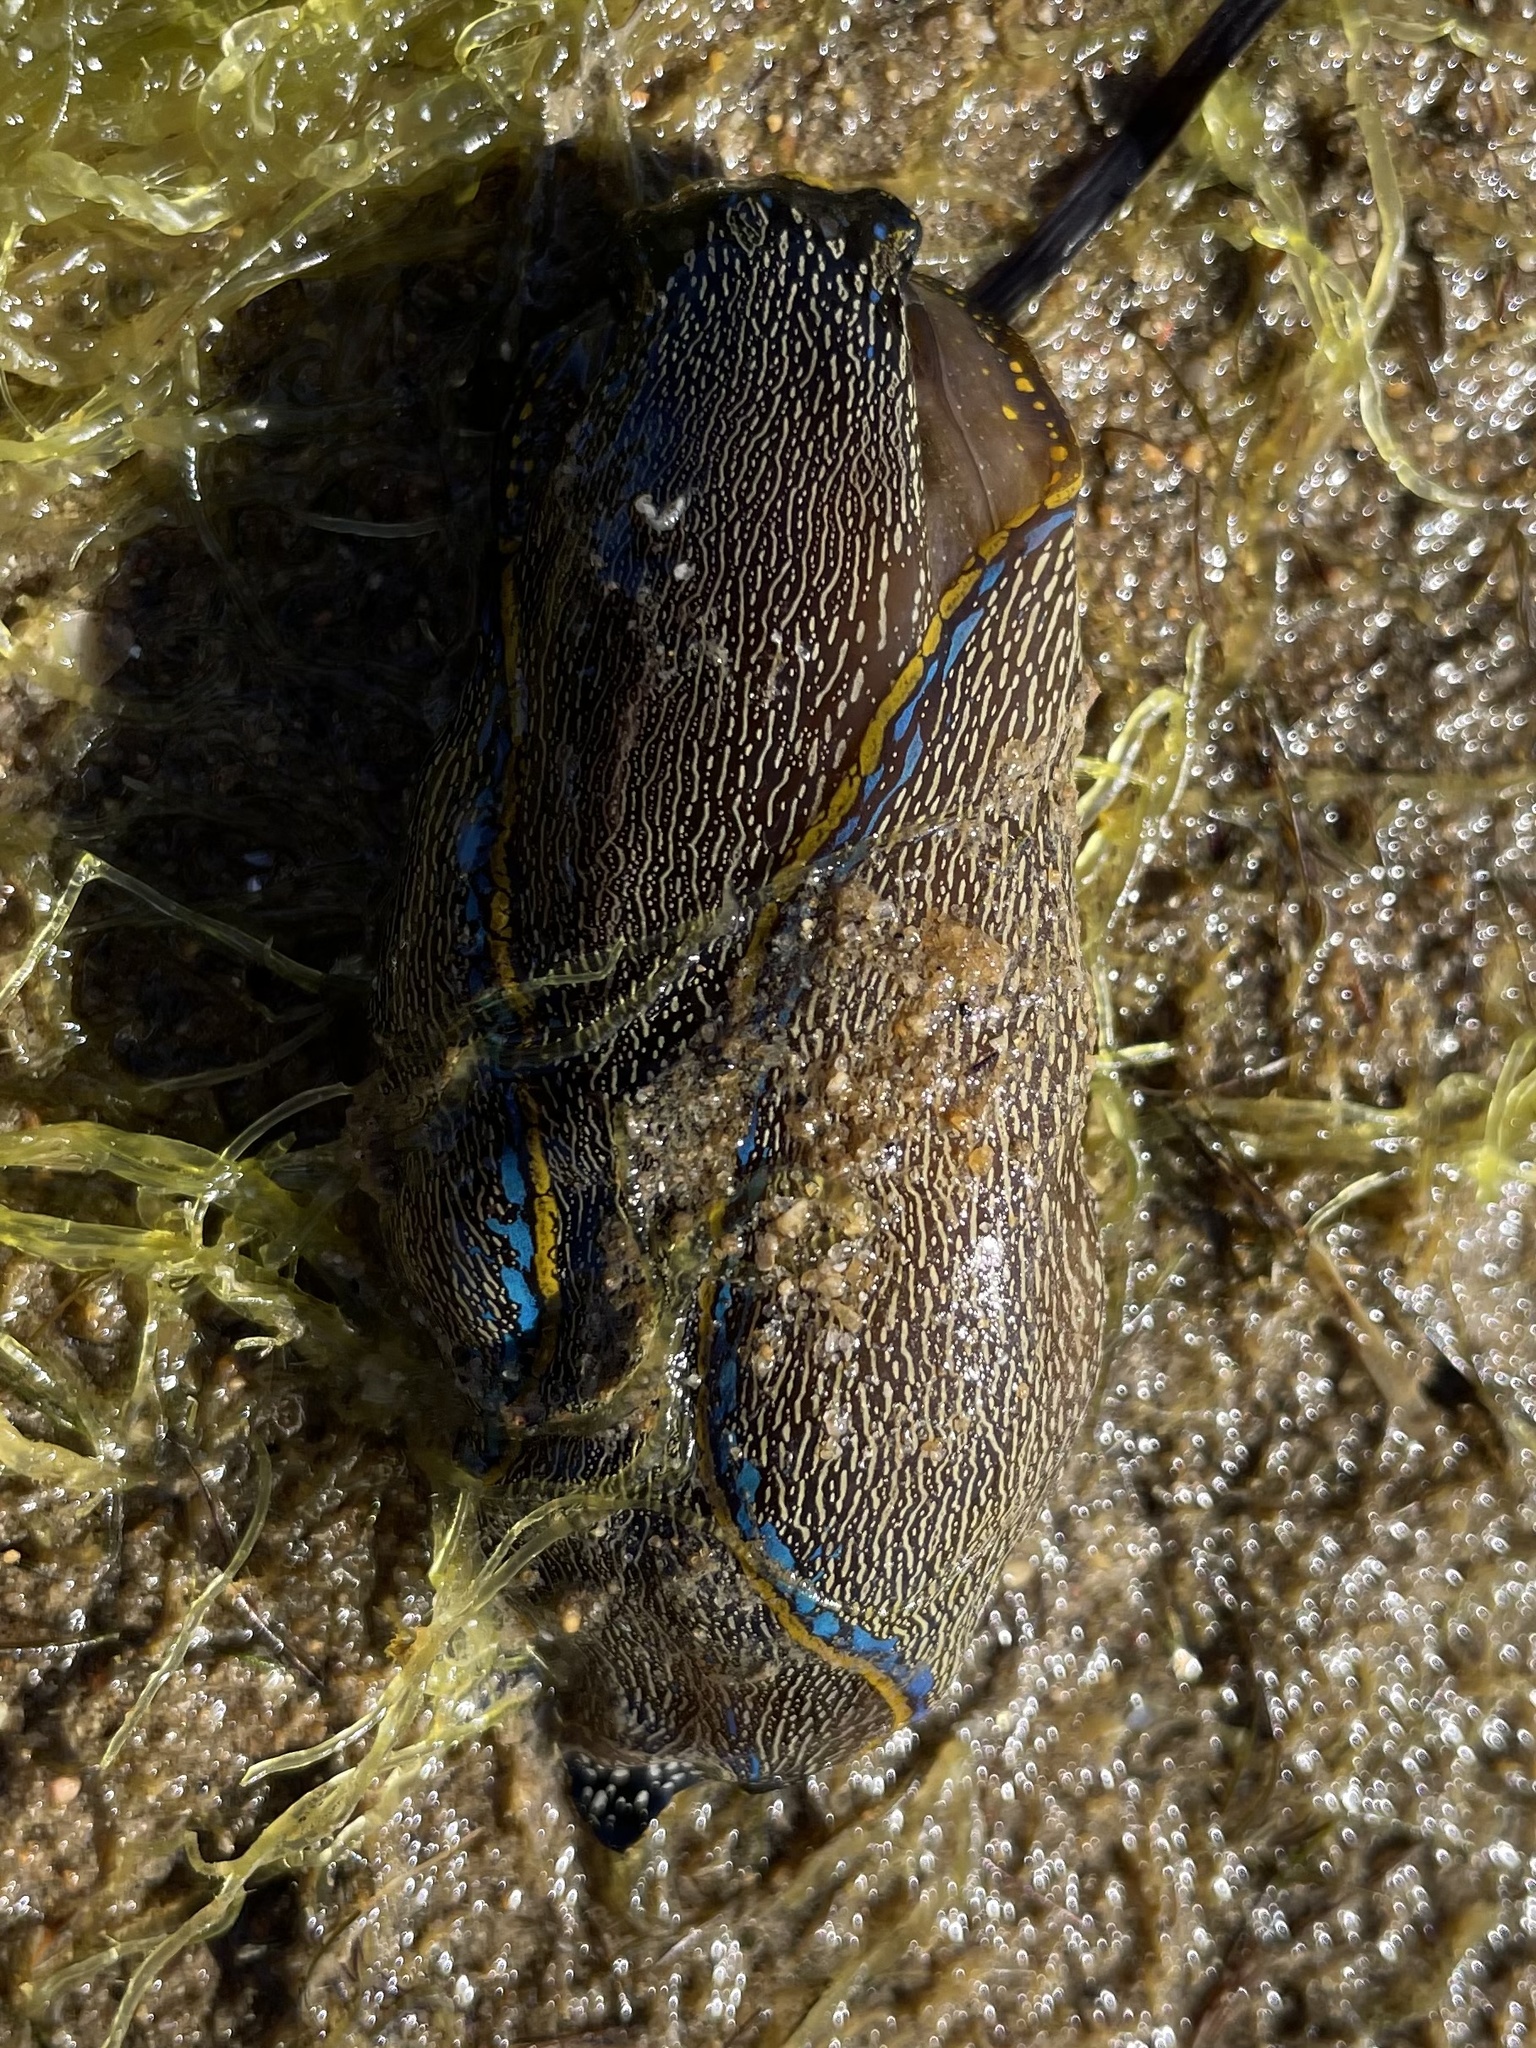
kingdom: Animalia
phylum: Mollusca
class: Gastropoda
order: Cephalaspidea
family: Aglajidae
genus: Navanax
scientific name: Navanax inermis
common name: California aglaja
